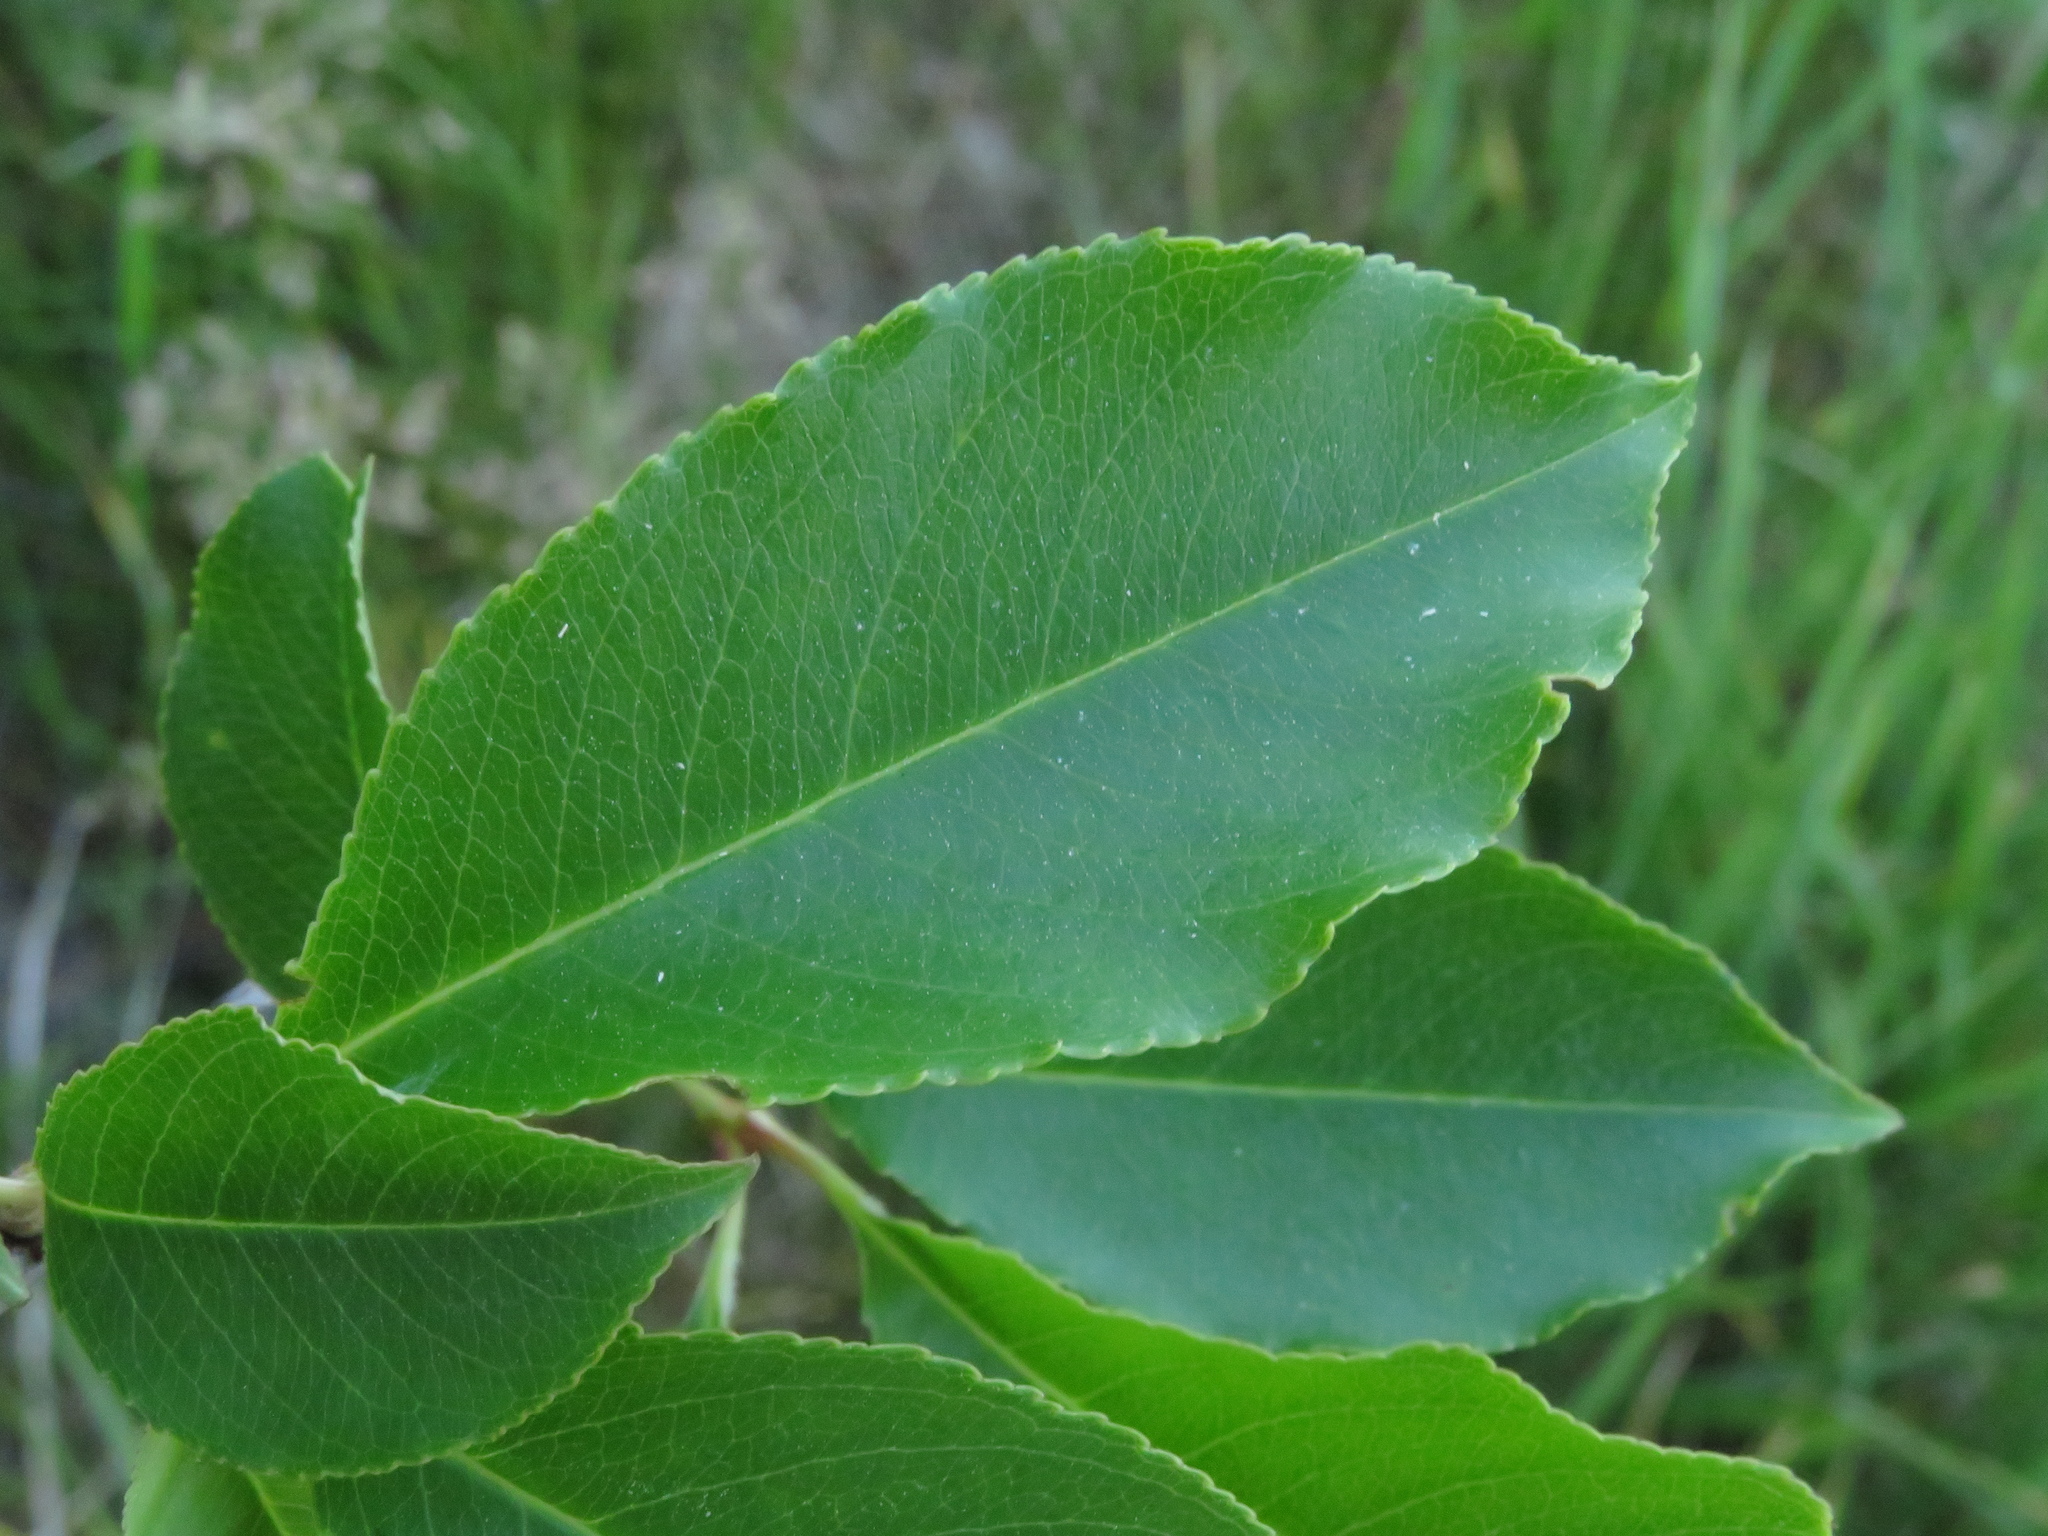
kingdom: Plantae
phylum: Tracheophyta
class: Magnoliopsida
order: Rosales
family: Rosaceae
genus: Prunus
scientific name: Prunus serotina
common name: Black cherry
